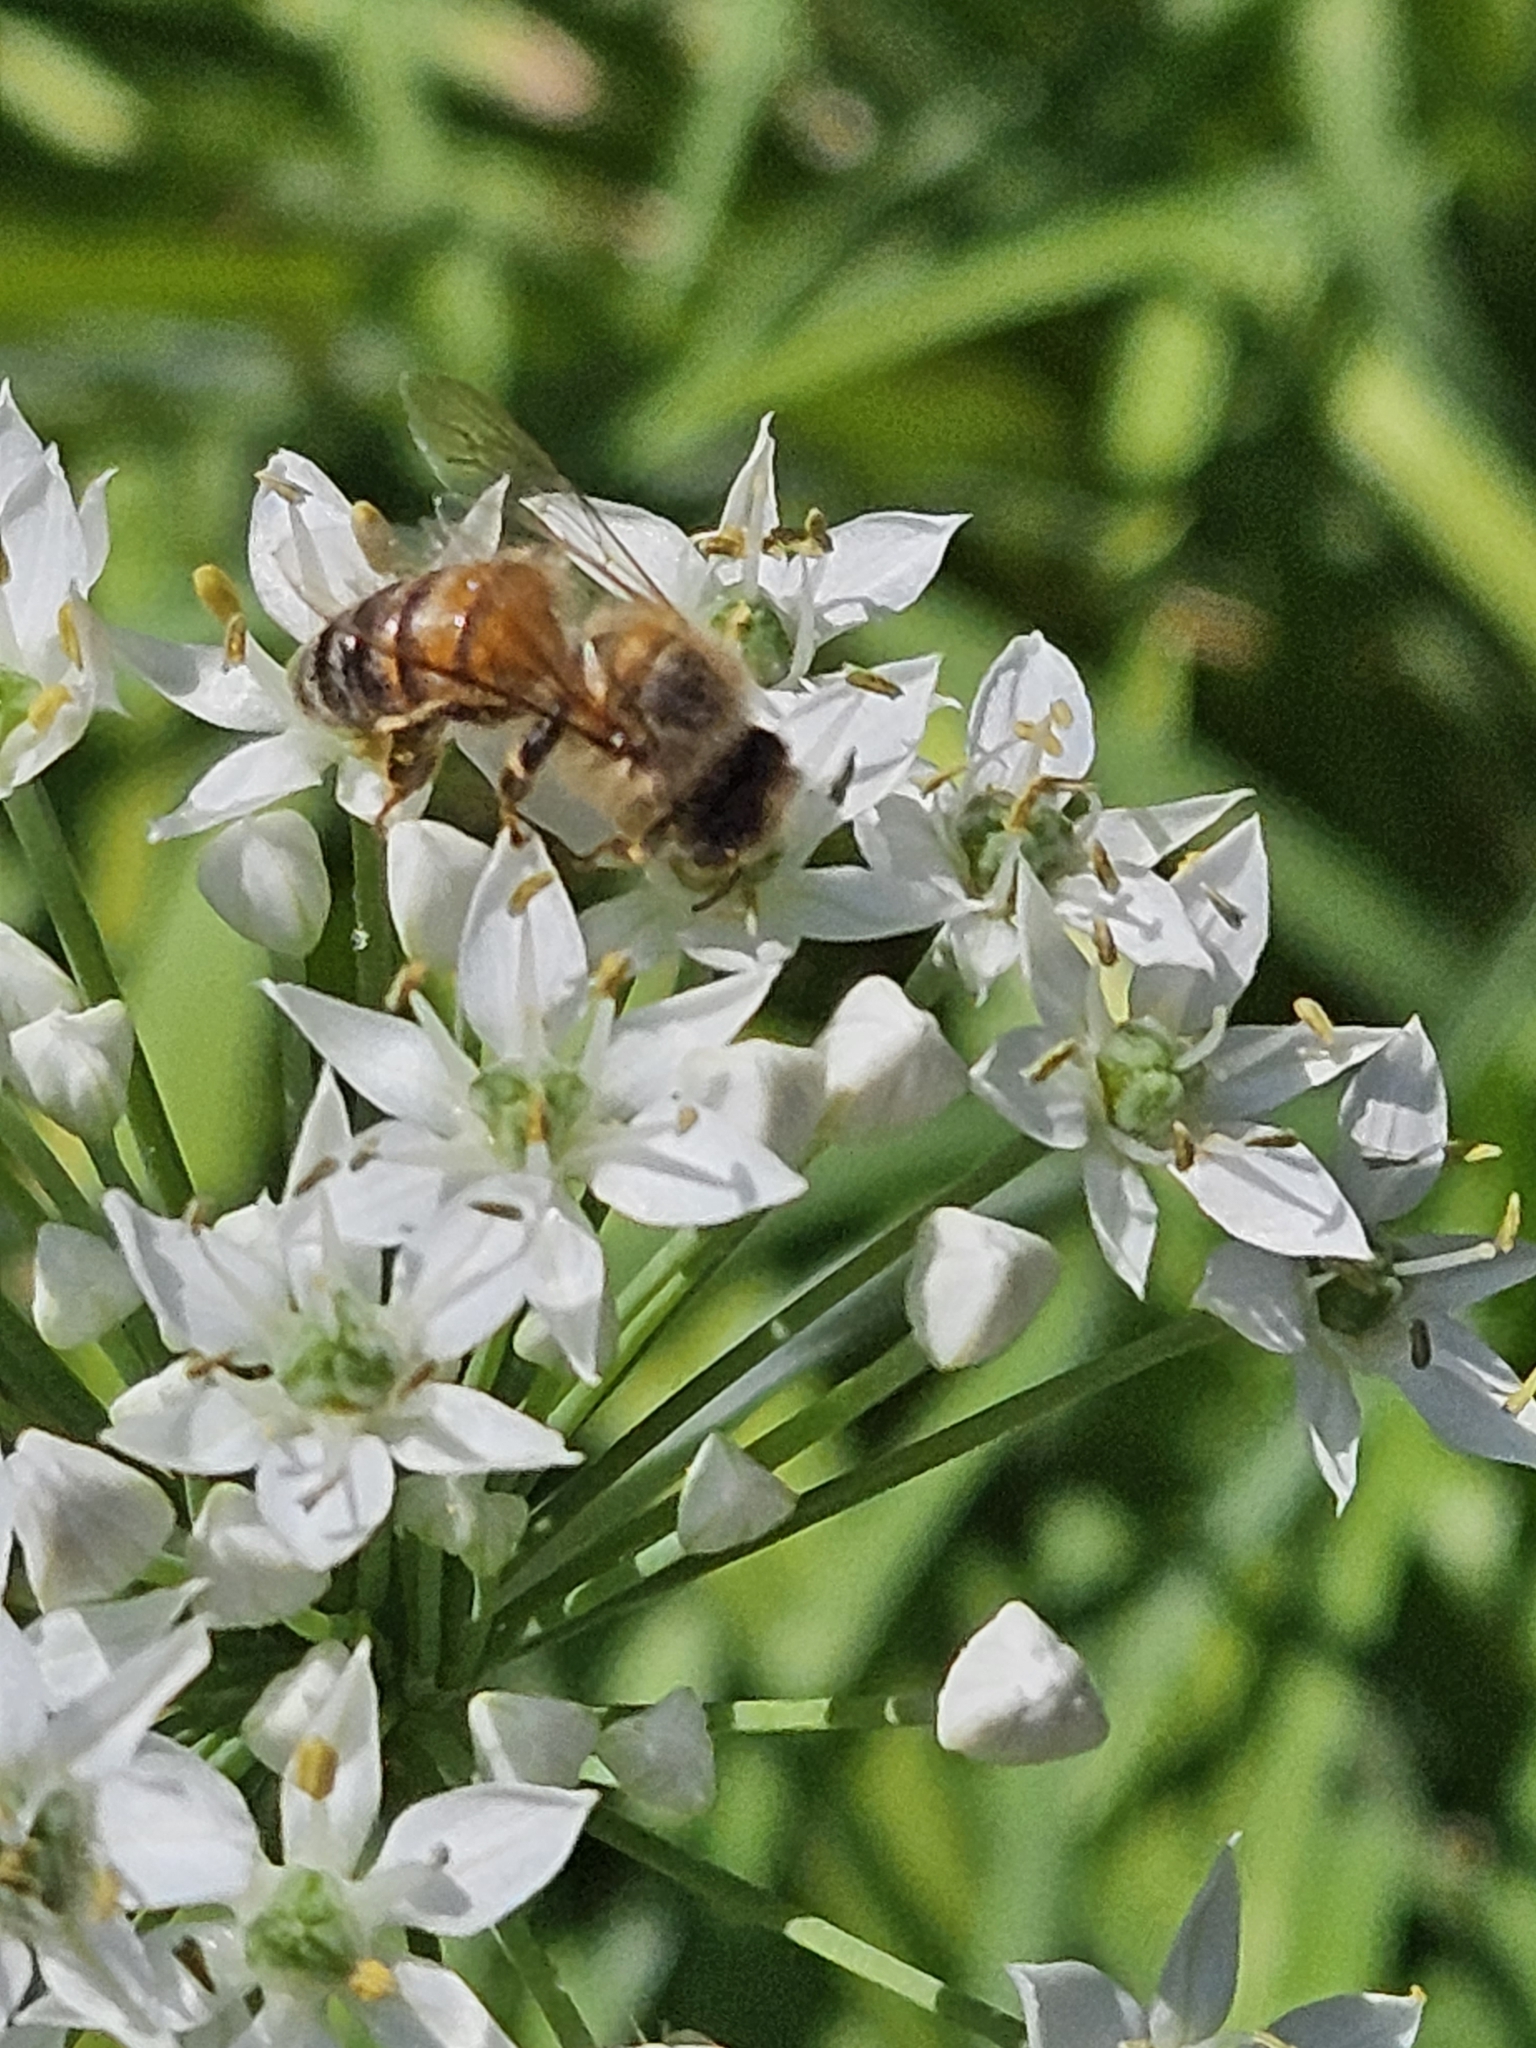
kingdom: Animalia
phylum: Arthropoda
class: Insecta
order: Hymenoptera
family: Apidae
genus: Apis
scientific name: Apis mellifera
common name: Honey bee
